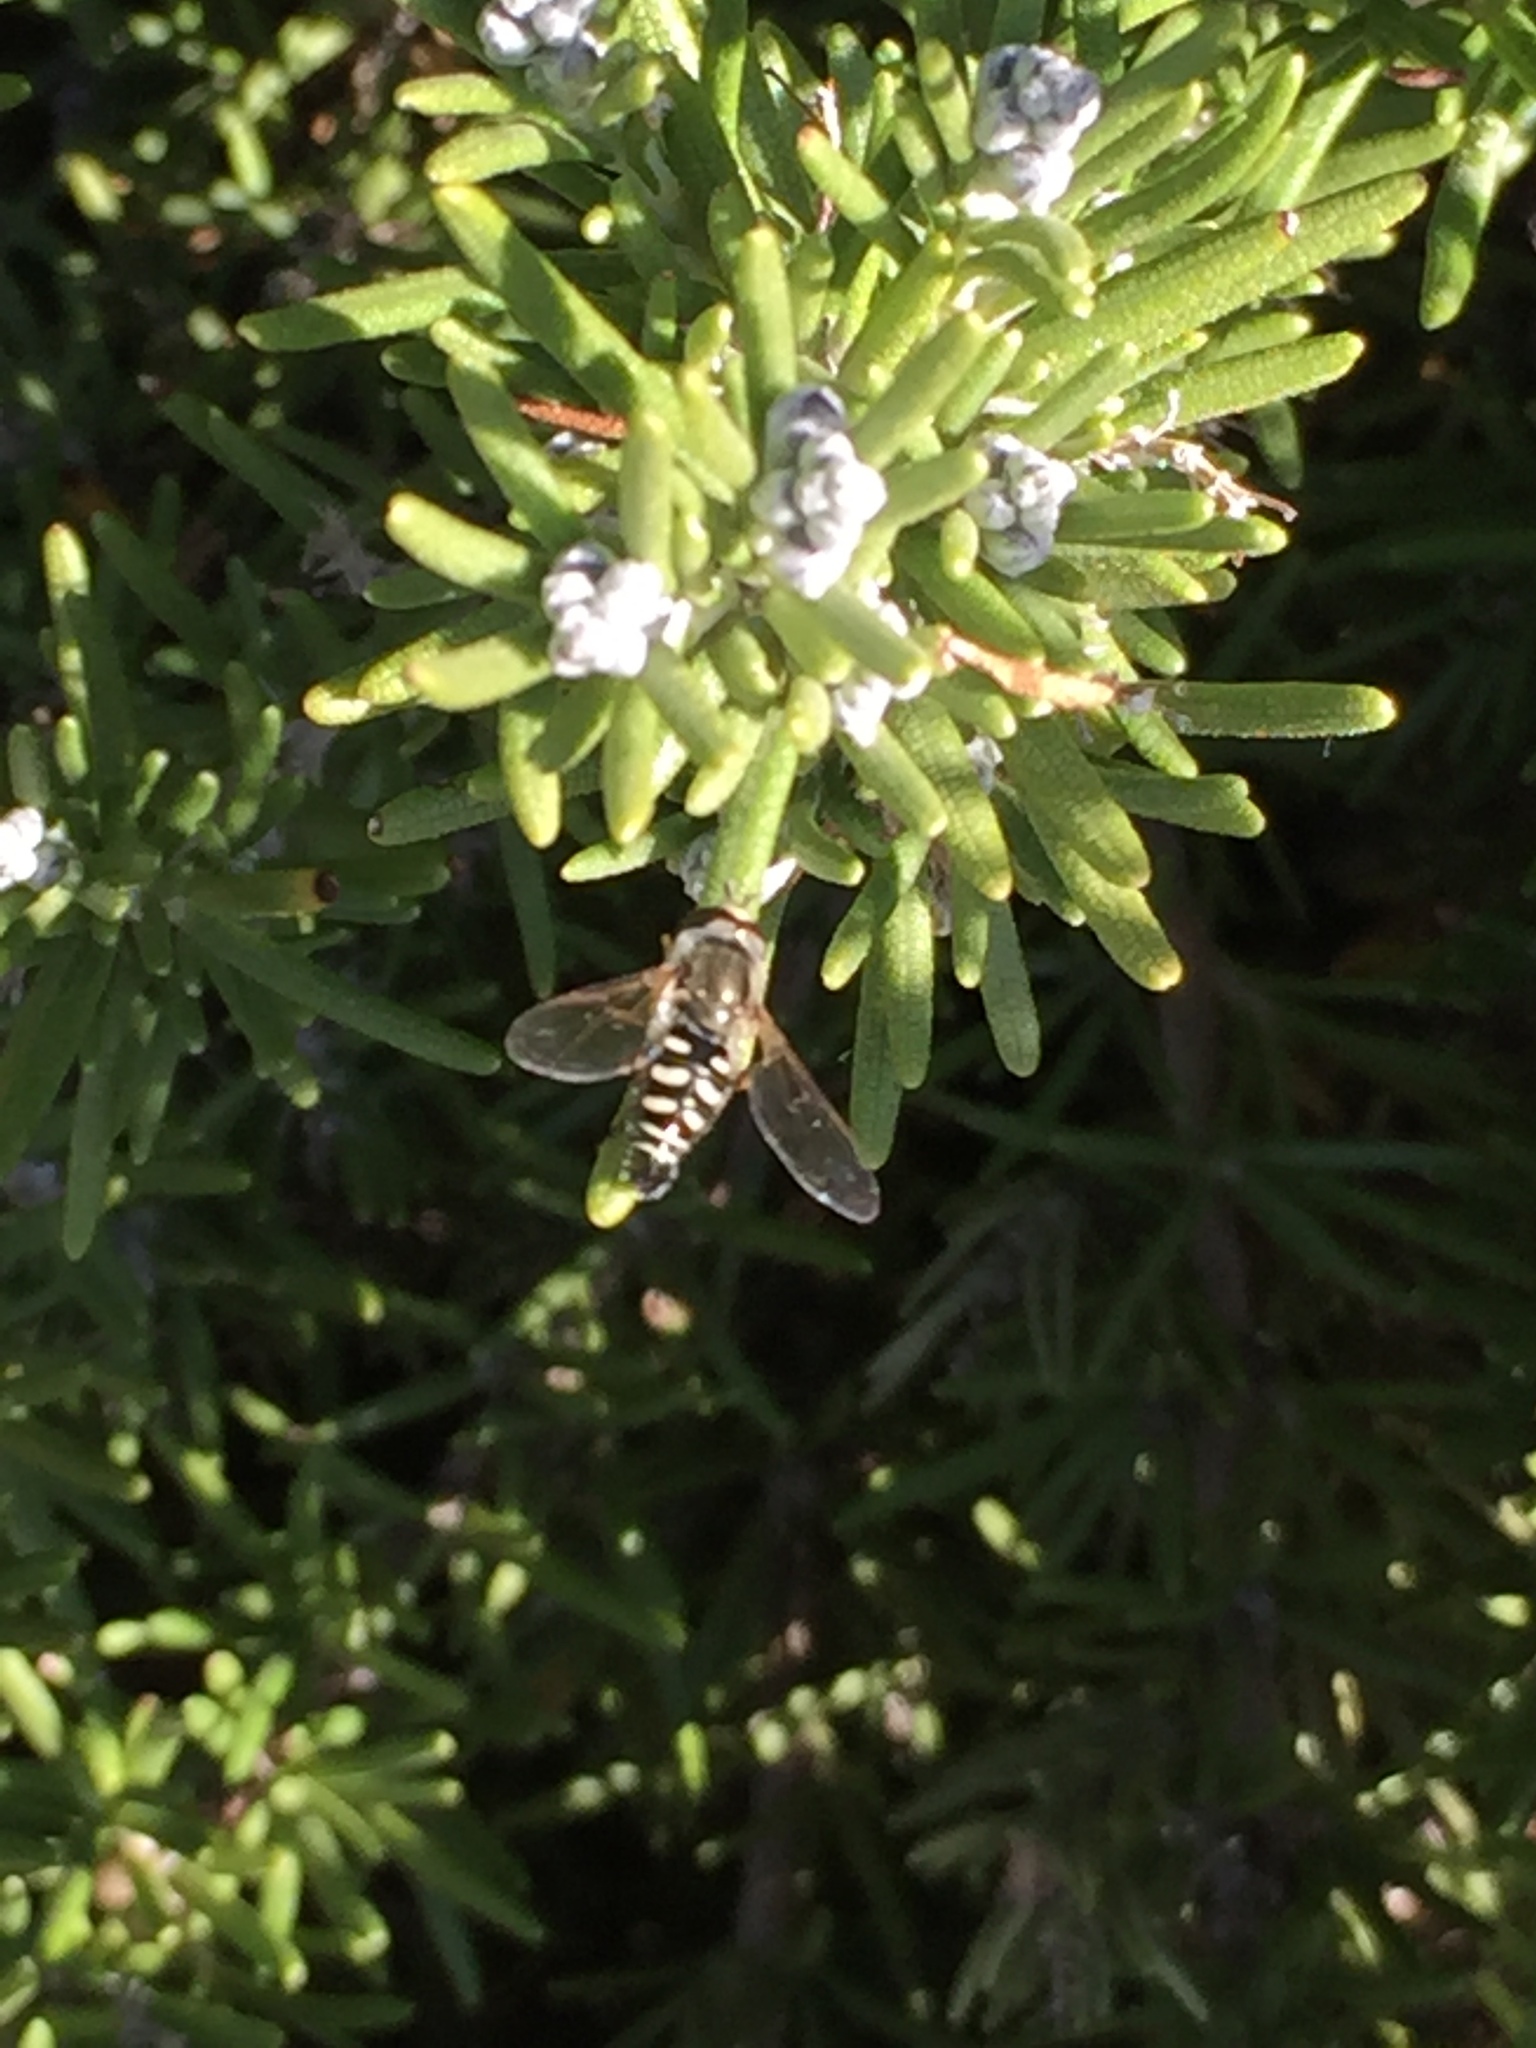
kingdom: Animalia
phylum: Arthropoda
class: Insecta
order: Diptera
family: Syrphidae
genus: Eupeodes
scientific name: Eupeodes volucris
